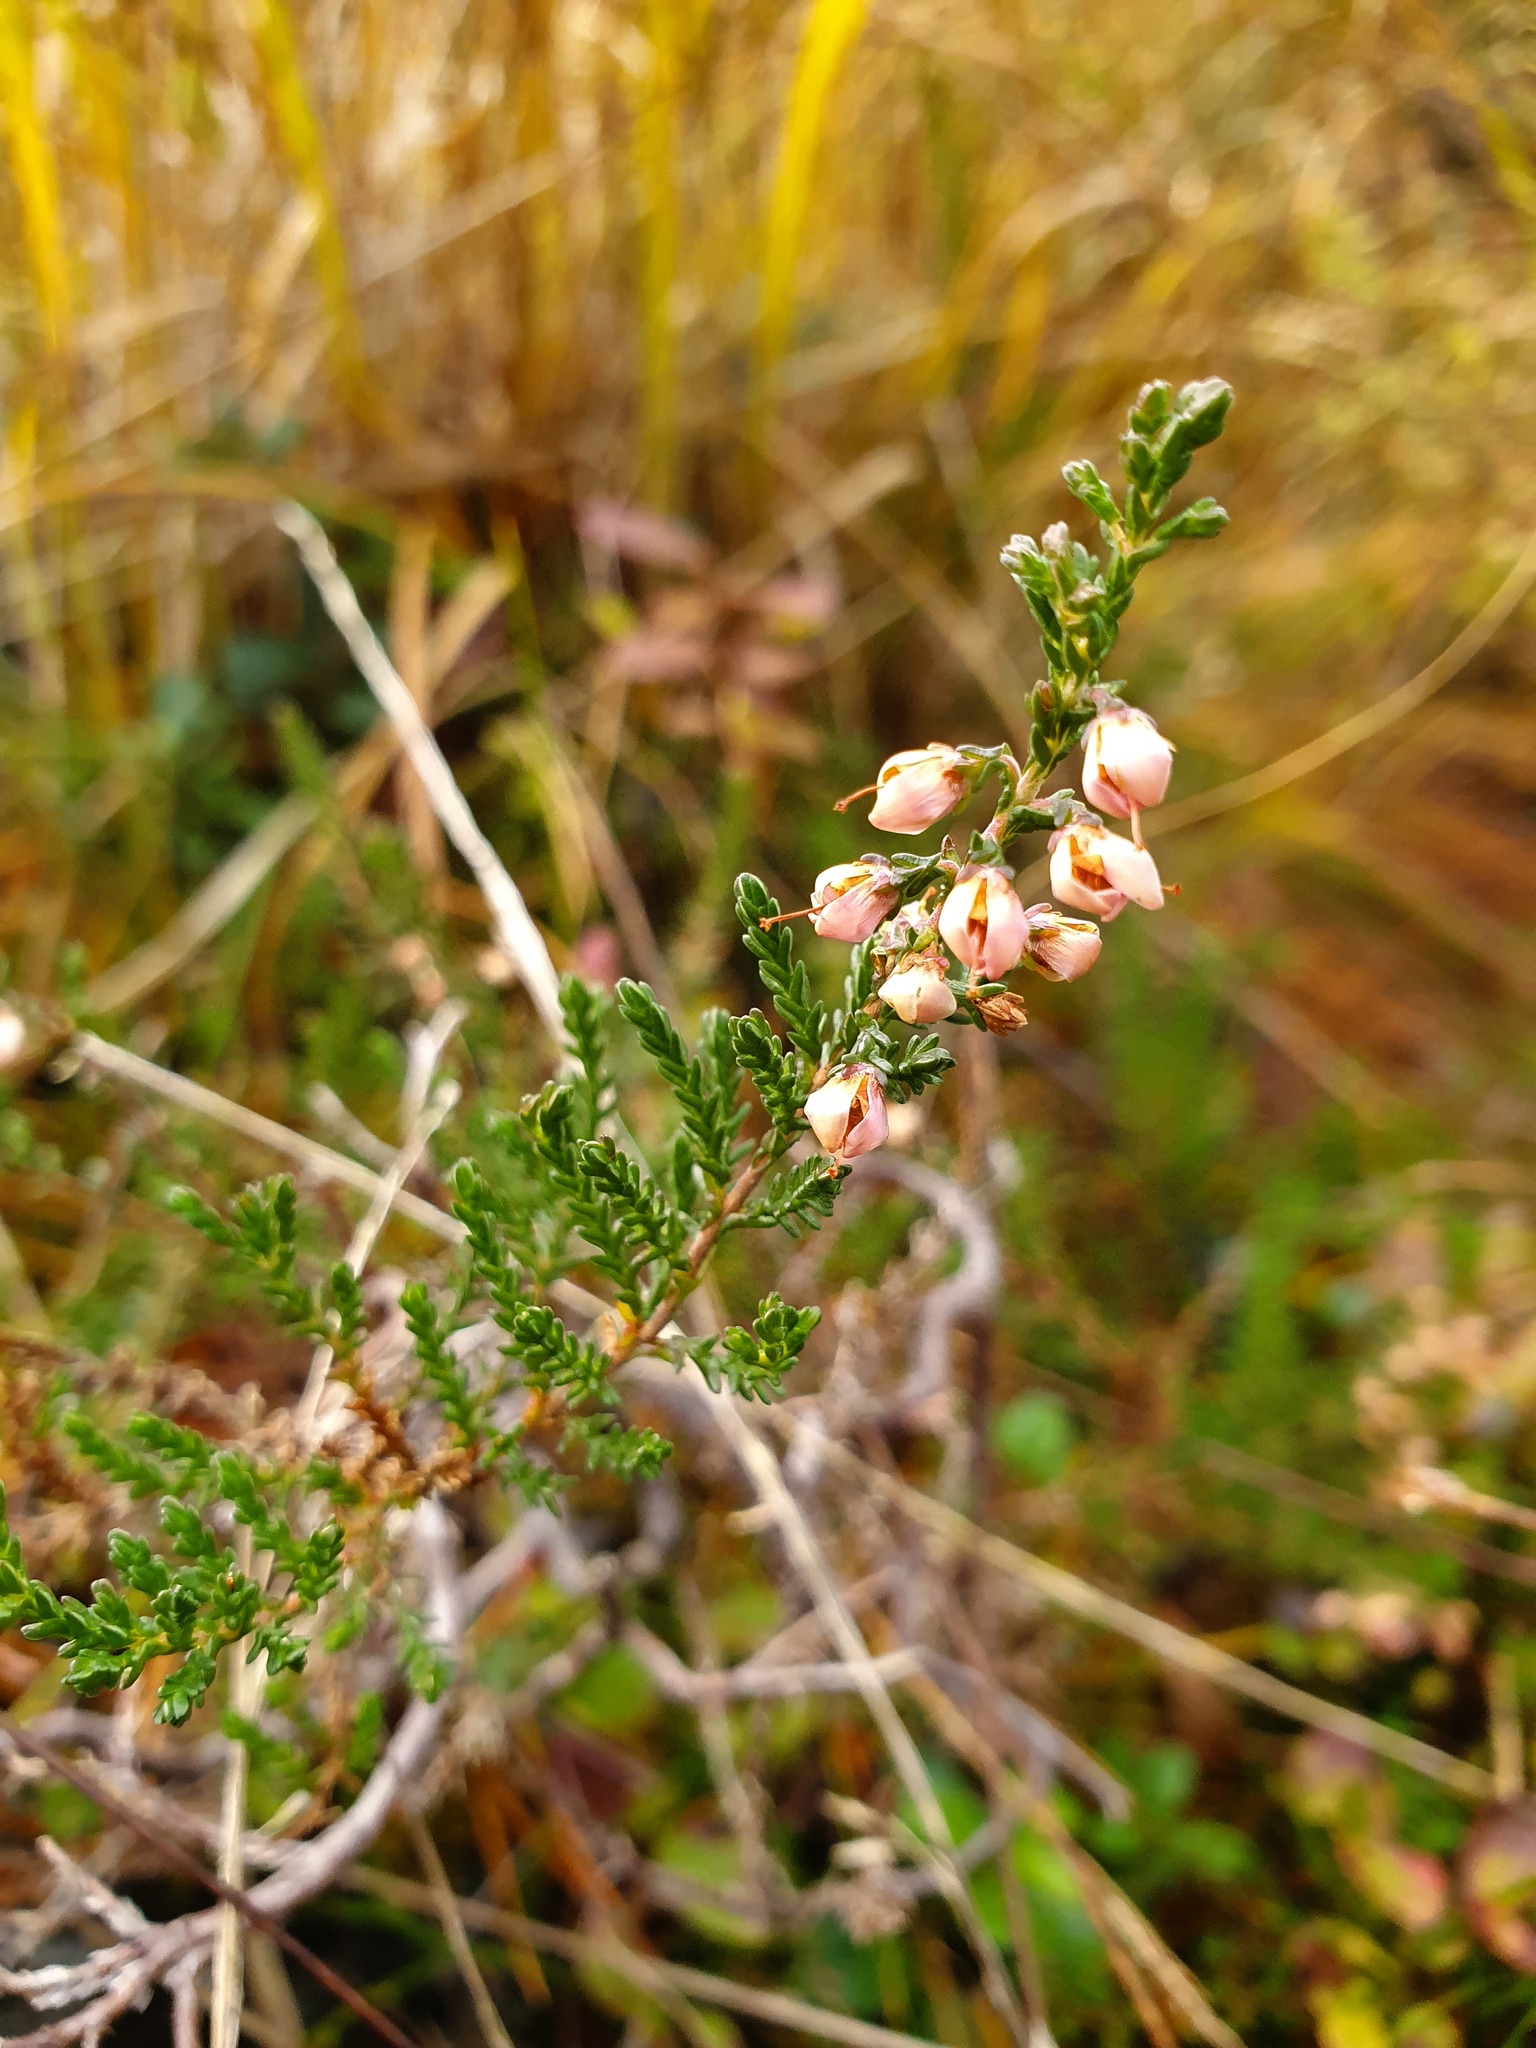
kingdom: Plantae
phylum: Tracheophyta
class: Magnoliopsida
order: Ericales
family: Ericaceae
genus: Calluna
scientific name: Calluna vulgaris
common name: Heather
